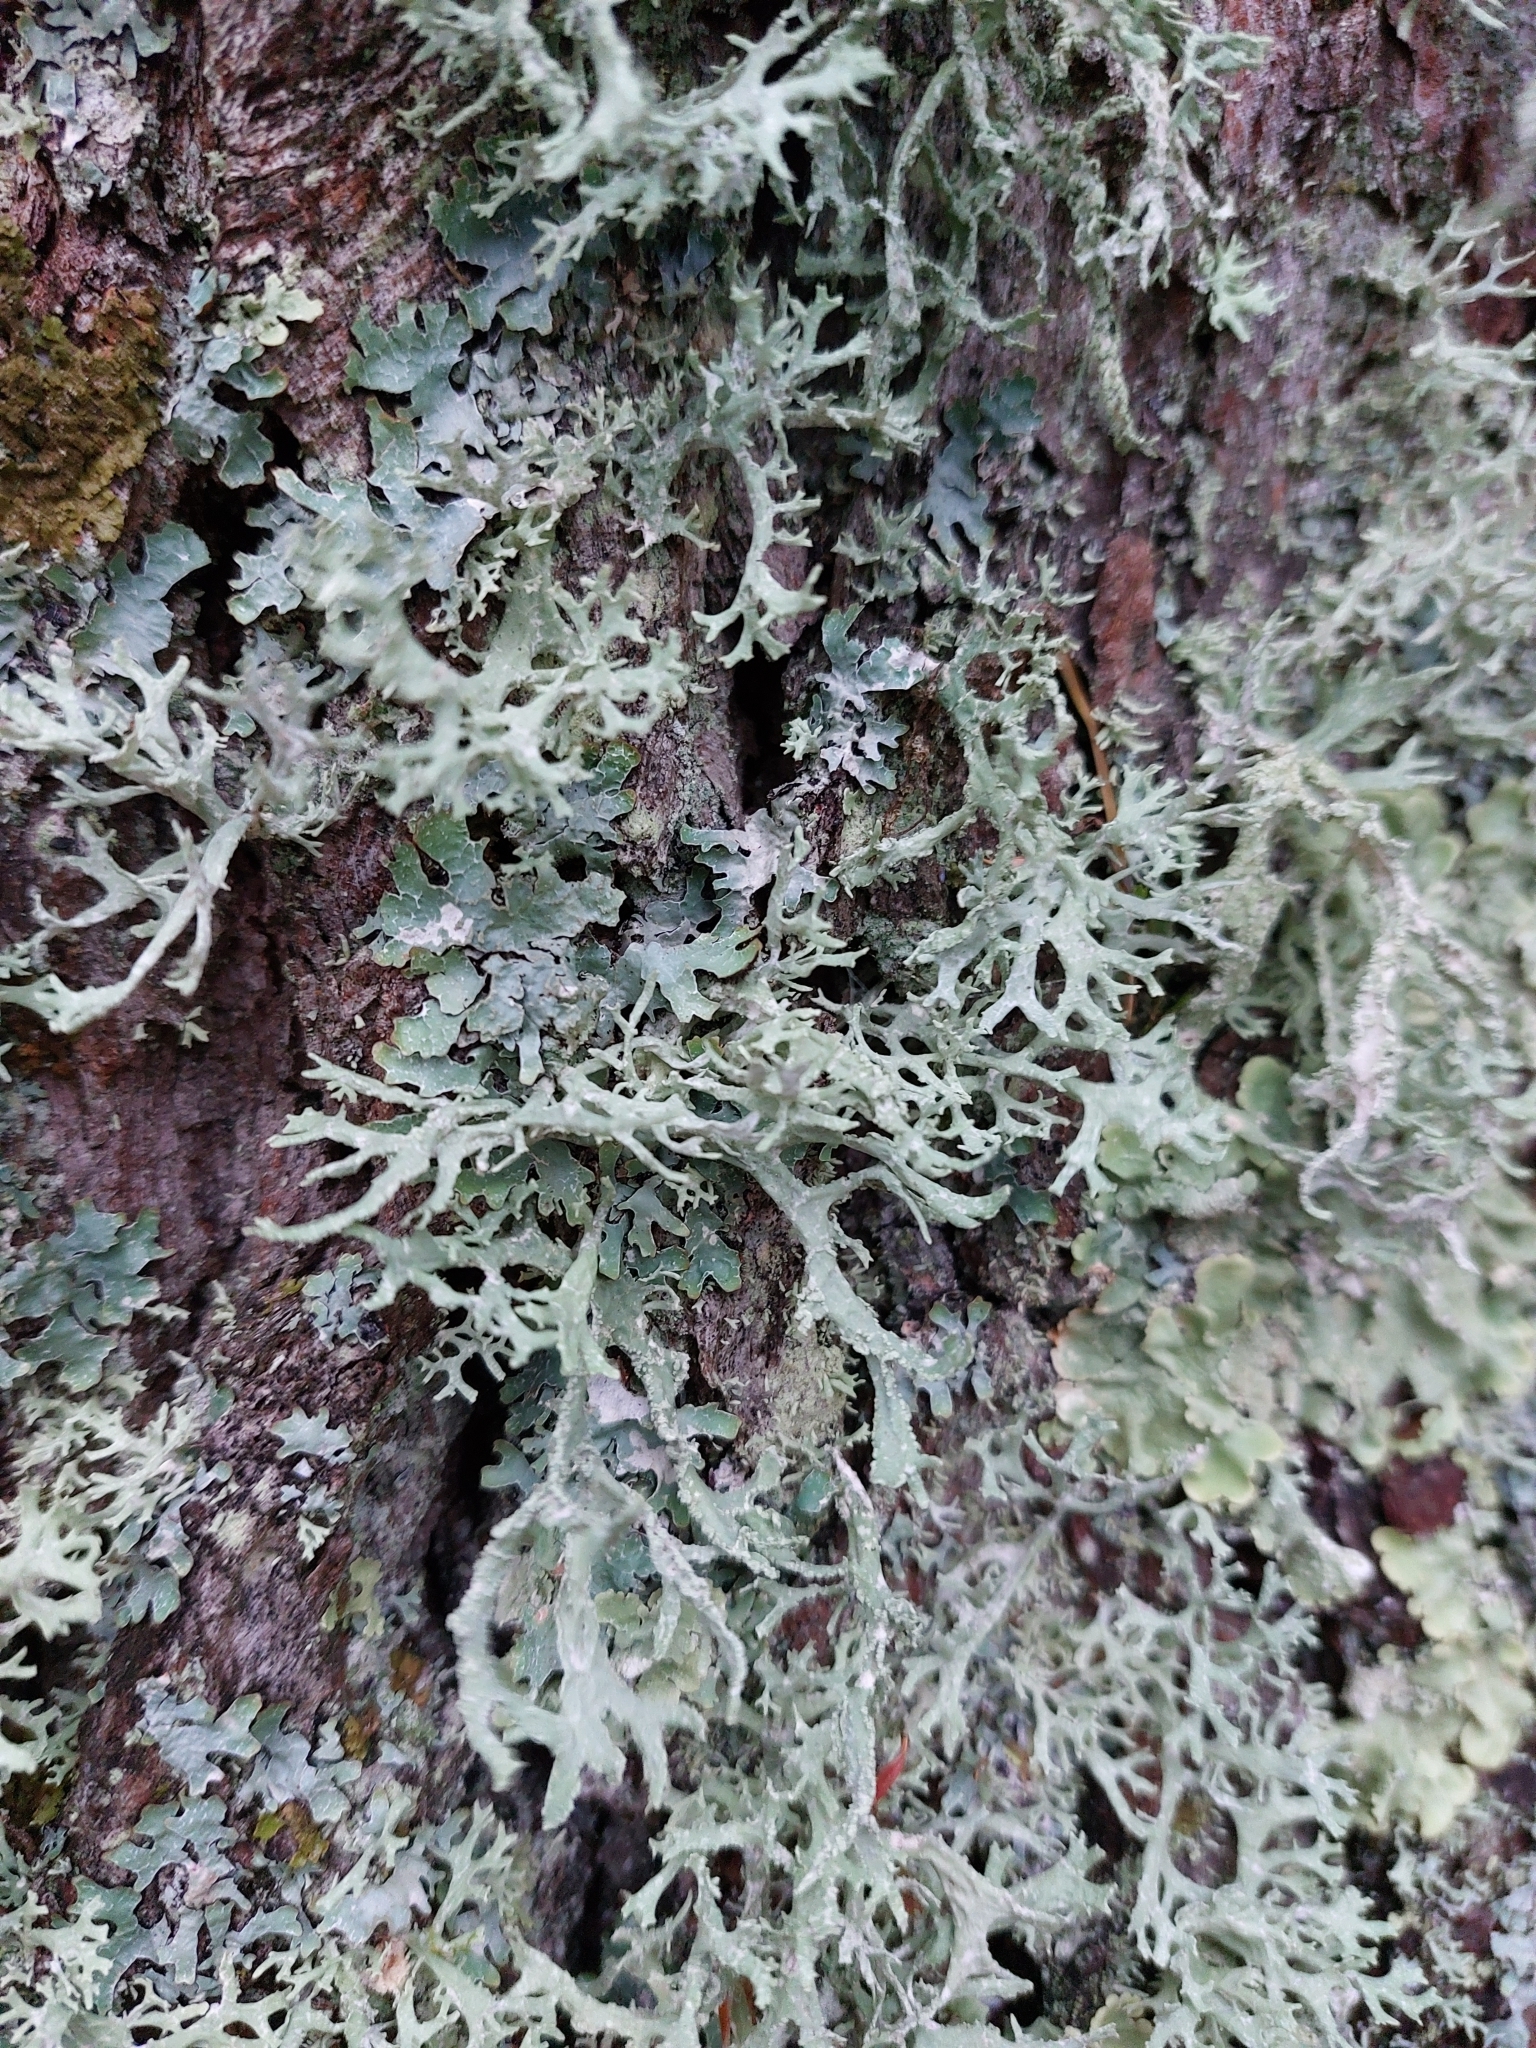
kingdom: Fungi
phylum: Ascomycota
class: Lecanoromycetes
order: Lecanorales
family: Parmeliaceae
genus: Evernia
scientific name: Evernia prunastri
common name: Oak moss
